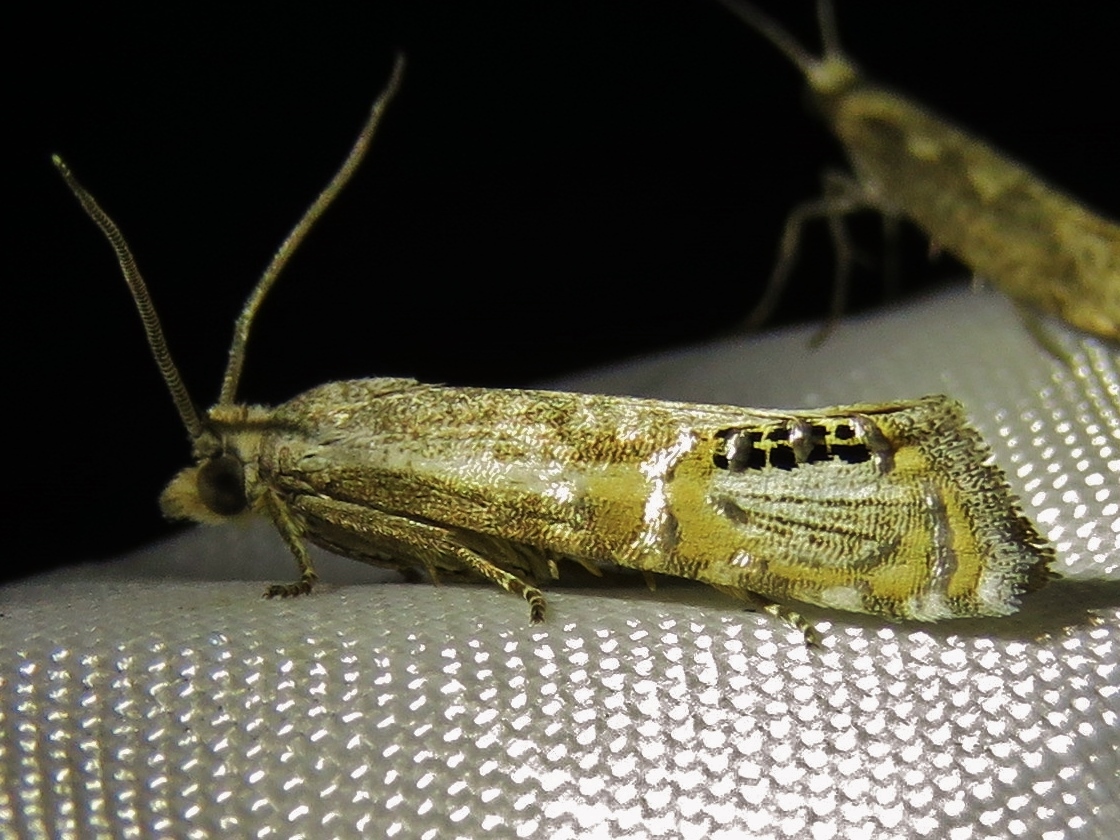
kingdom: Animalia
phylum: Arthropoda
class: Insecta
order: Lepidoptera
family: Tortricidae
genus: Pelochrista
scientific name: Pelochrista scintillana
